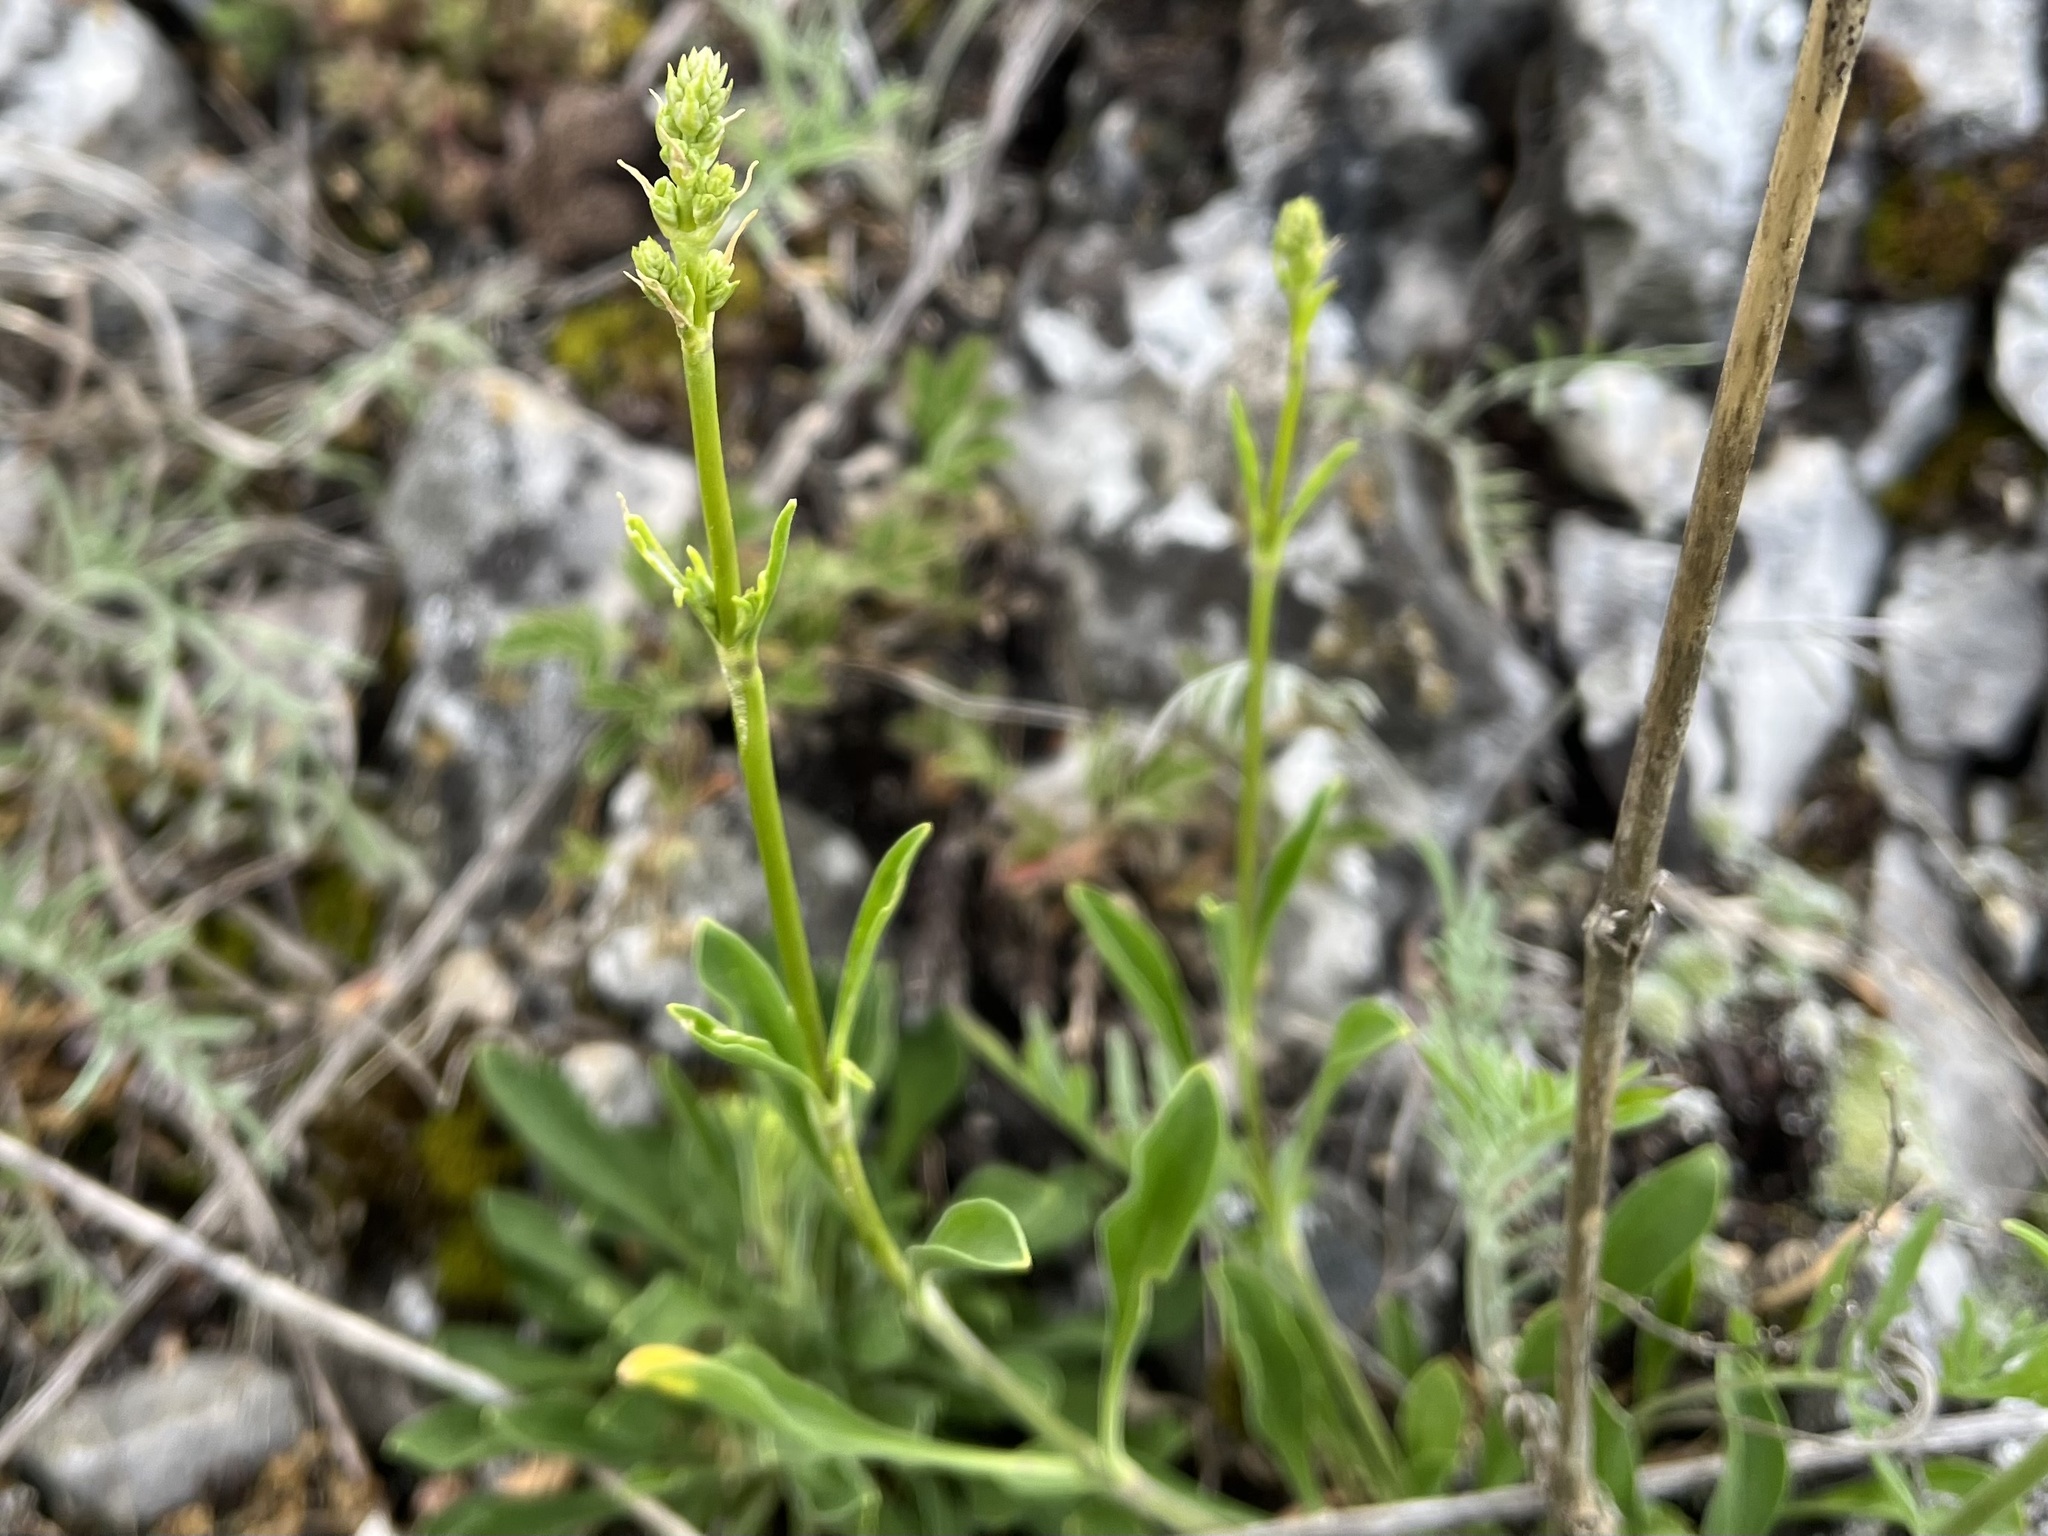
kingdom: Plantae
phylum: Tracheophyta
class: Magnoliopsida
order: Caryophyllales
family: Caryophyllaceae
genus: Silene
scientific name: Silene otites
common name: Spanish catchfly
